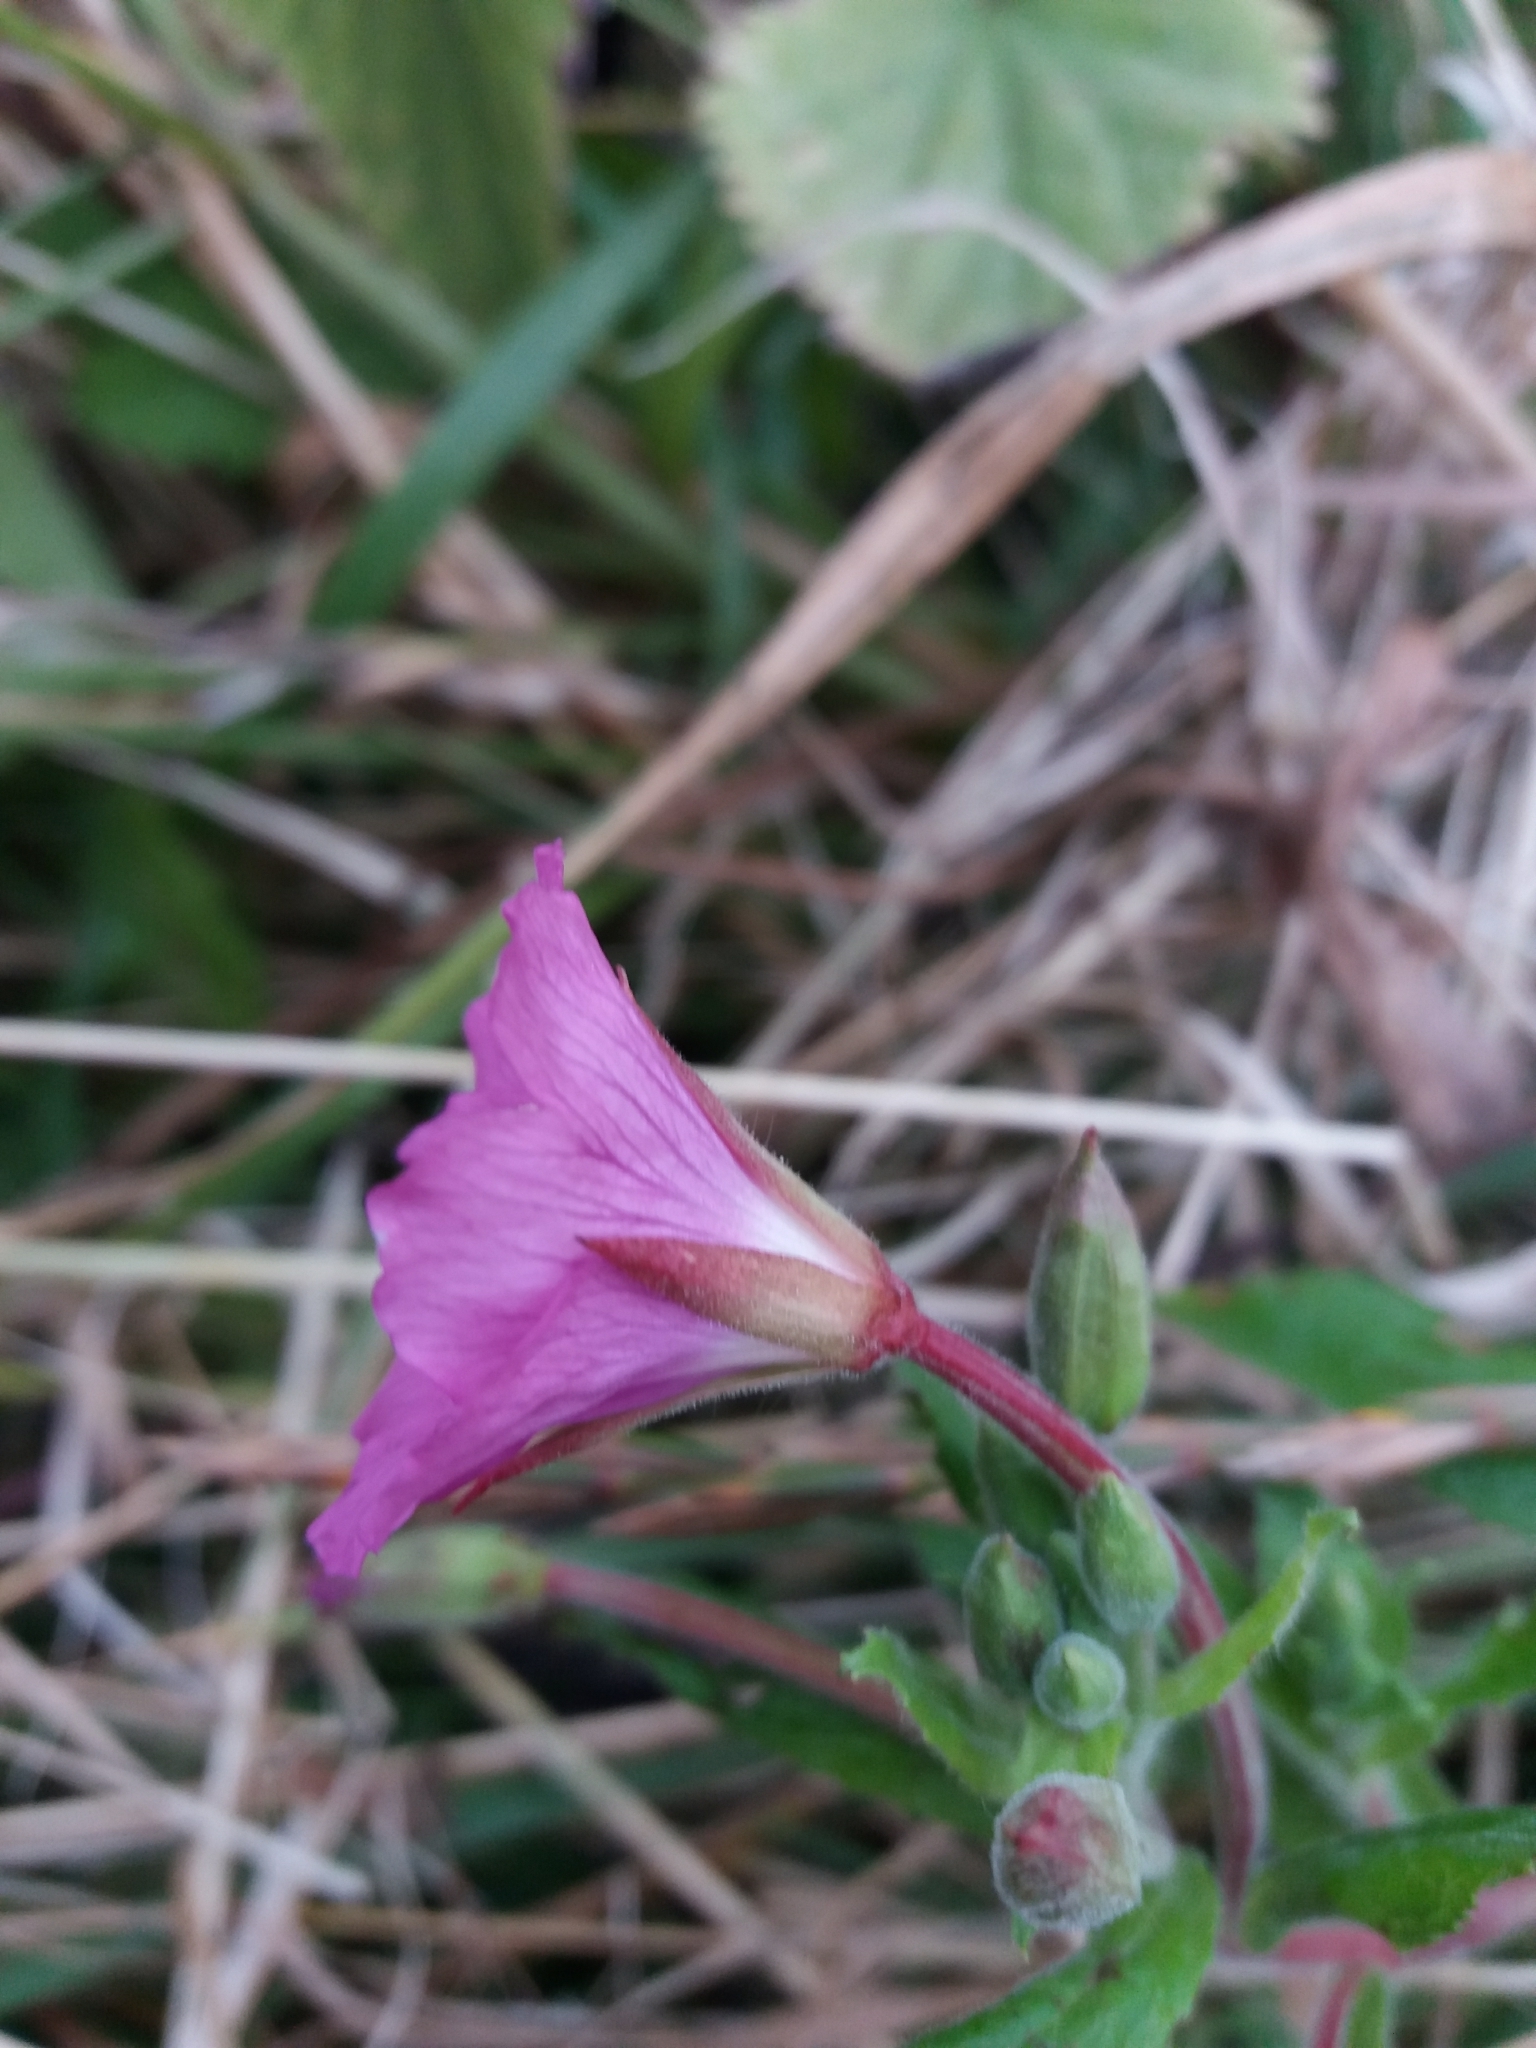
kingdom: Plantae
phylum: Tracheophyta
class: Magnoliopsida
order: Myrtales
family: Onagraceae
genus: Epilobium
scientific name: Epilobium hirsutum
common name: Great willowherb
